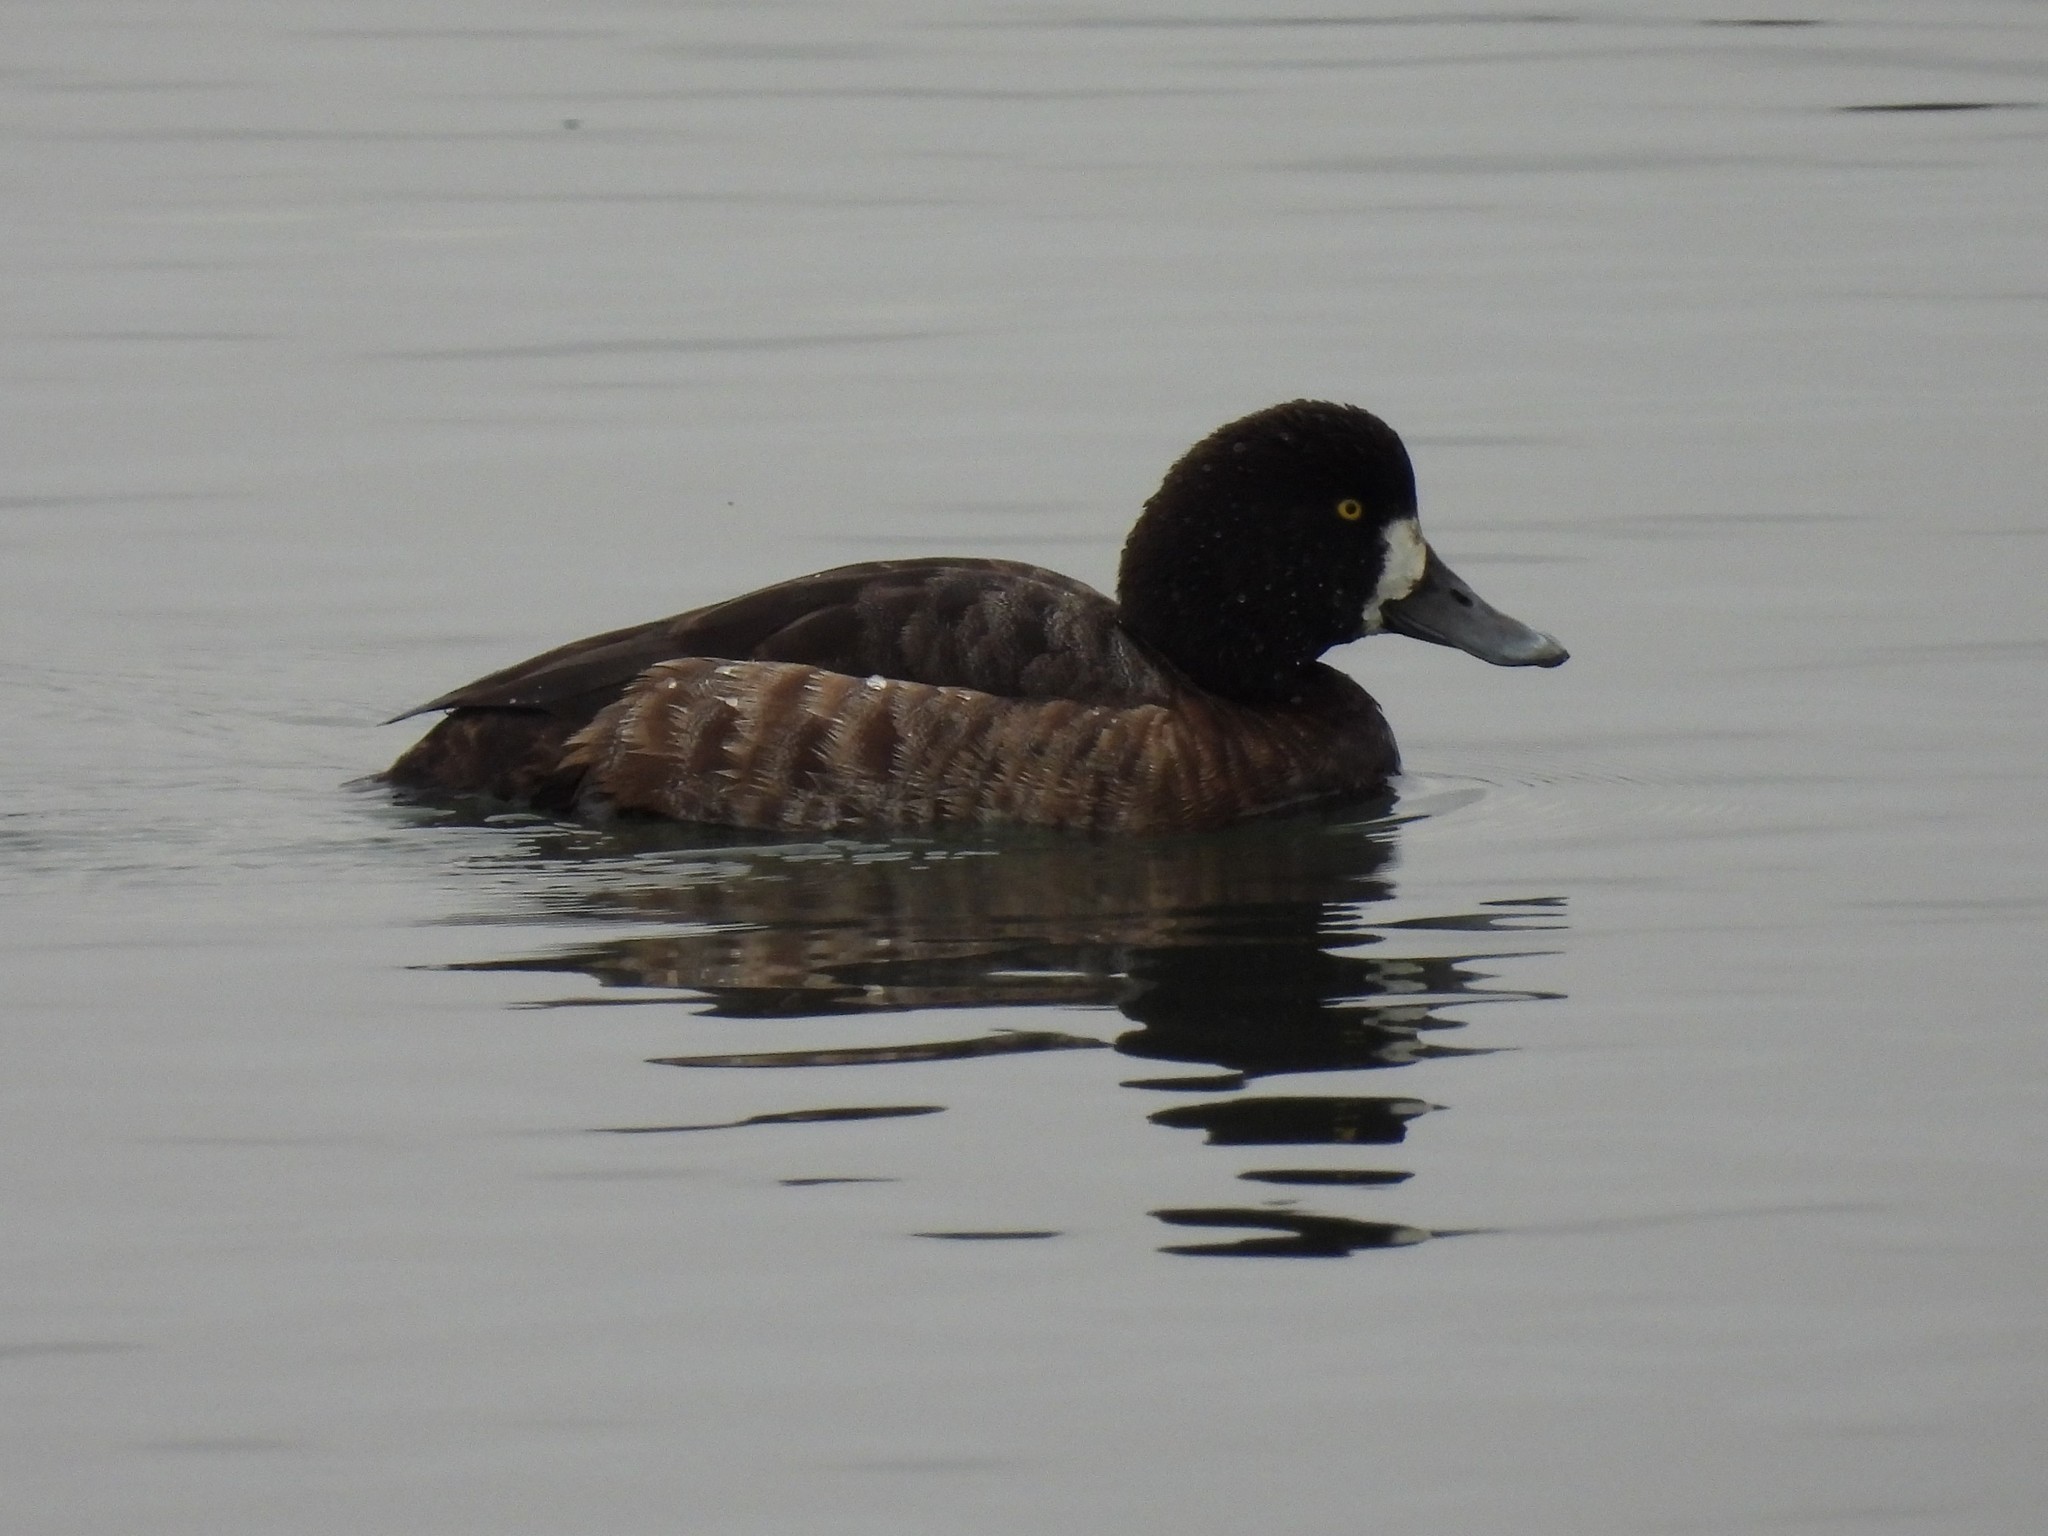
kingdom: Animalia
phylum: Chordata
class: Aves
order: Anseriformes
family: Anatidae
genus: Aythya
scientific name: Aythya marila
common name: Greater scaup
